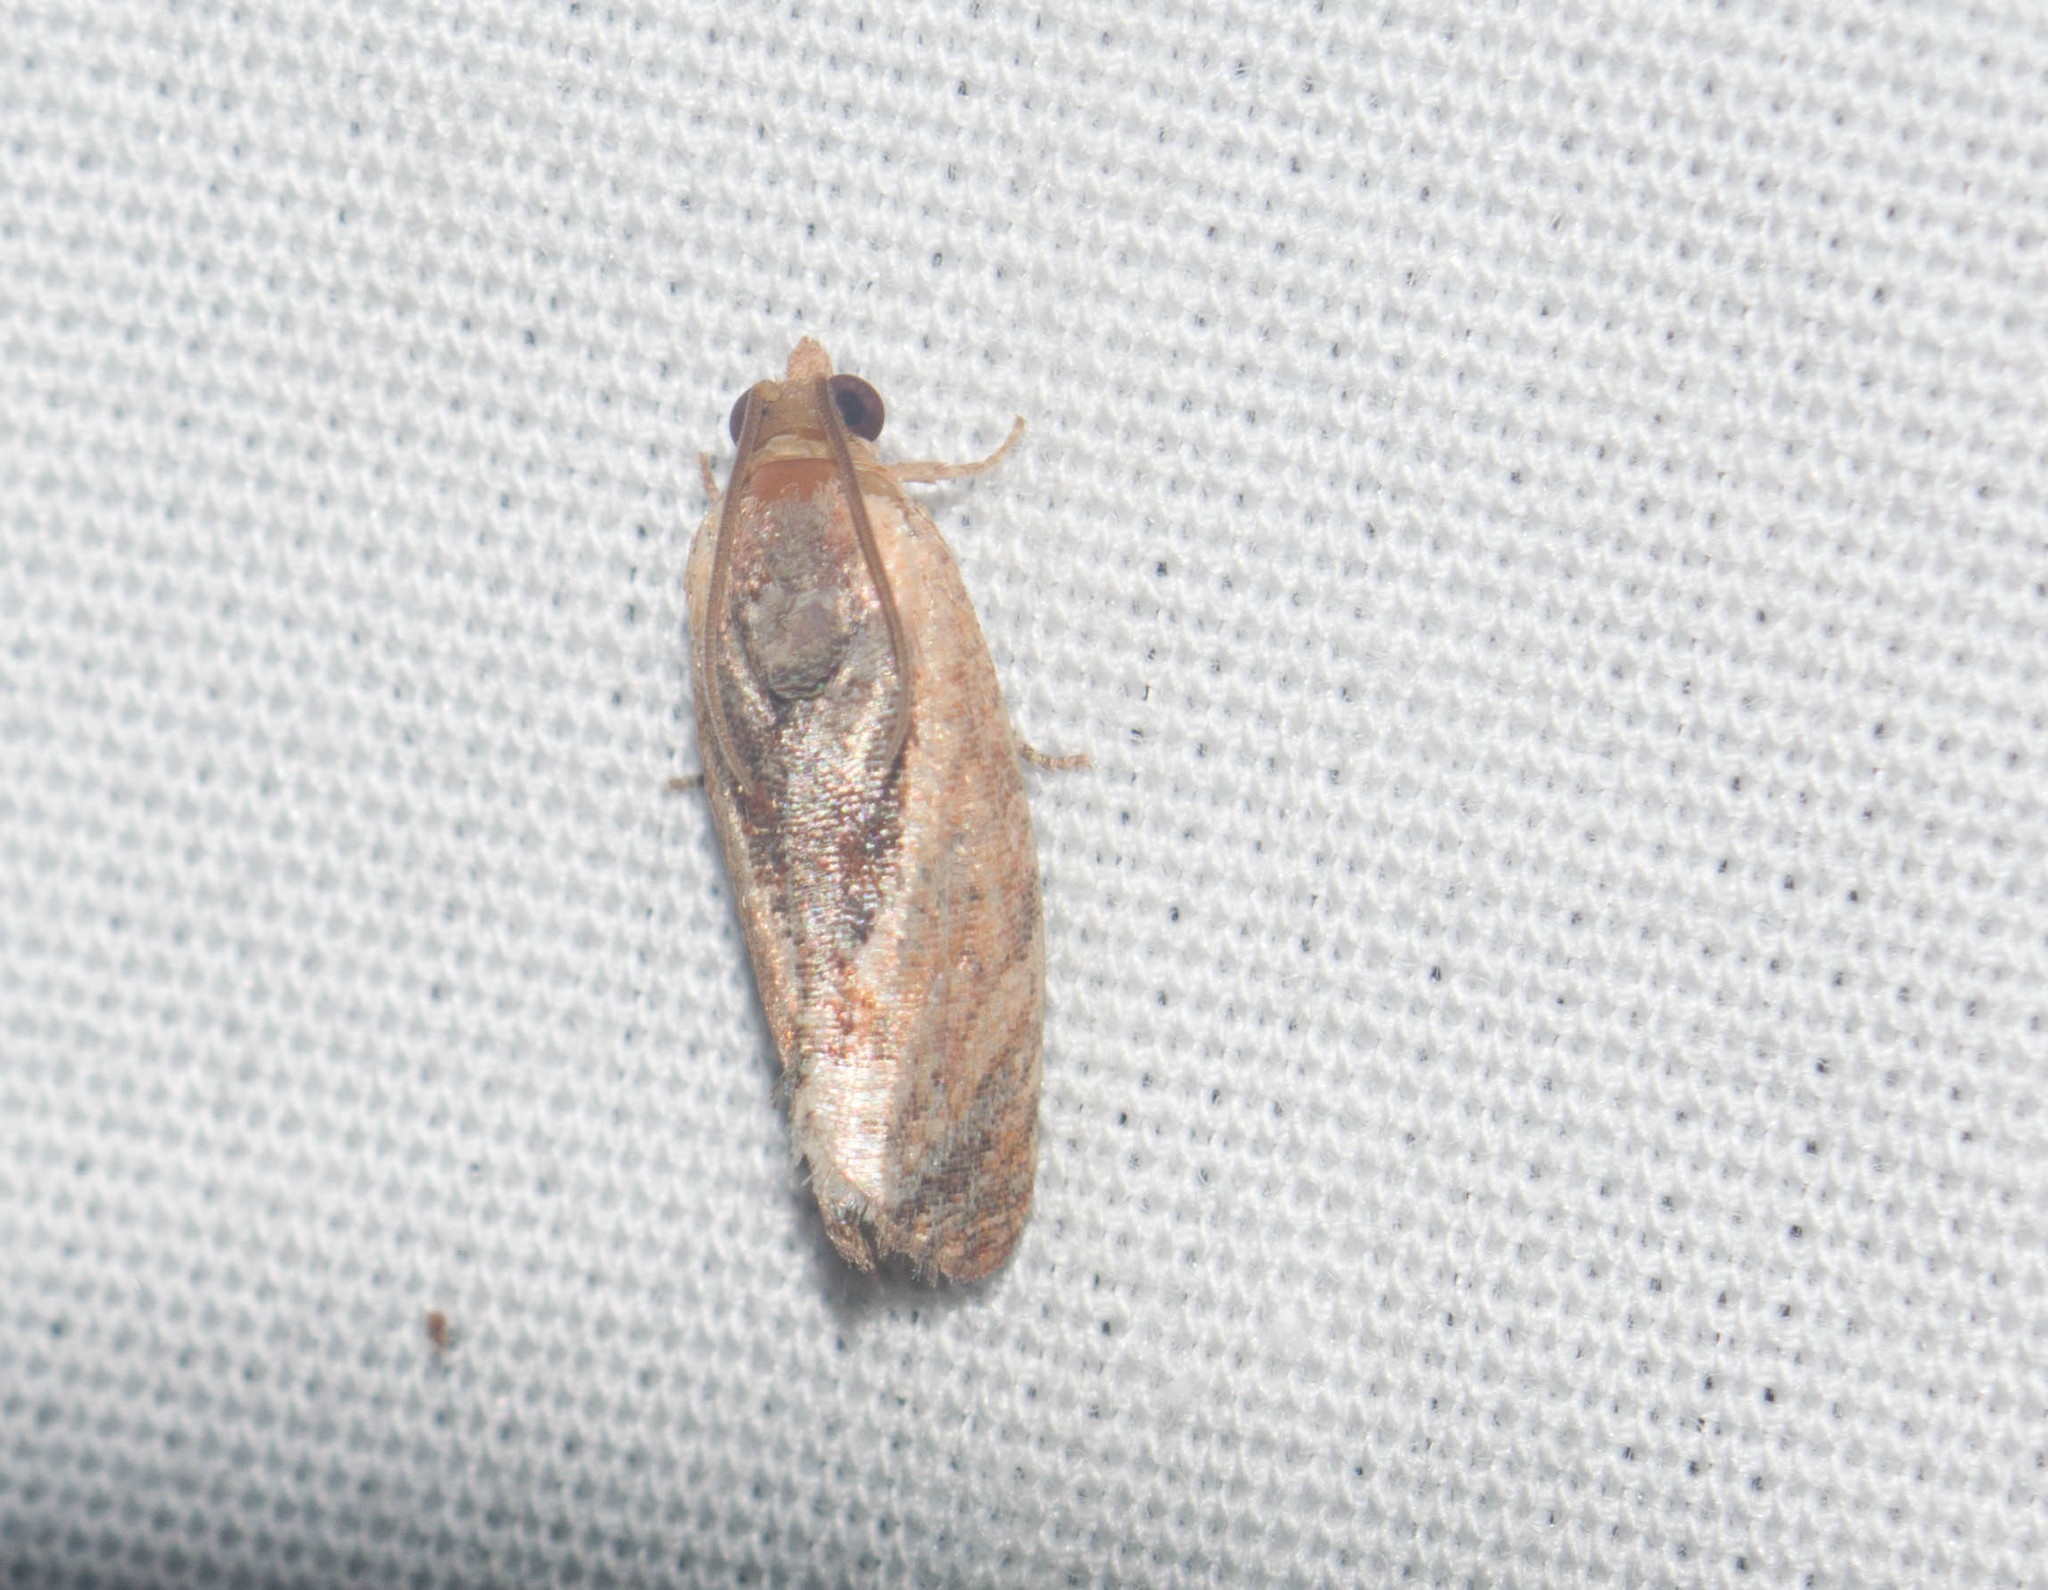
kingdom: Animalia
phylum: Arthropoda
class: Insecta
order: Lepidoptera
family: Tortricidae
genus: Cryptophlebia
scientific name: Cryptophlebia ombrodelta
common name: Litchi fruit moth
